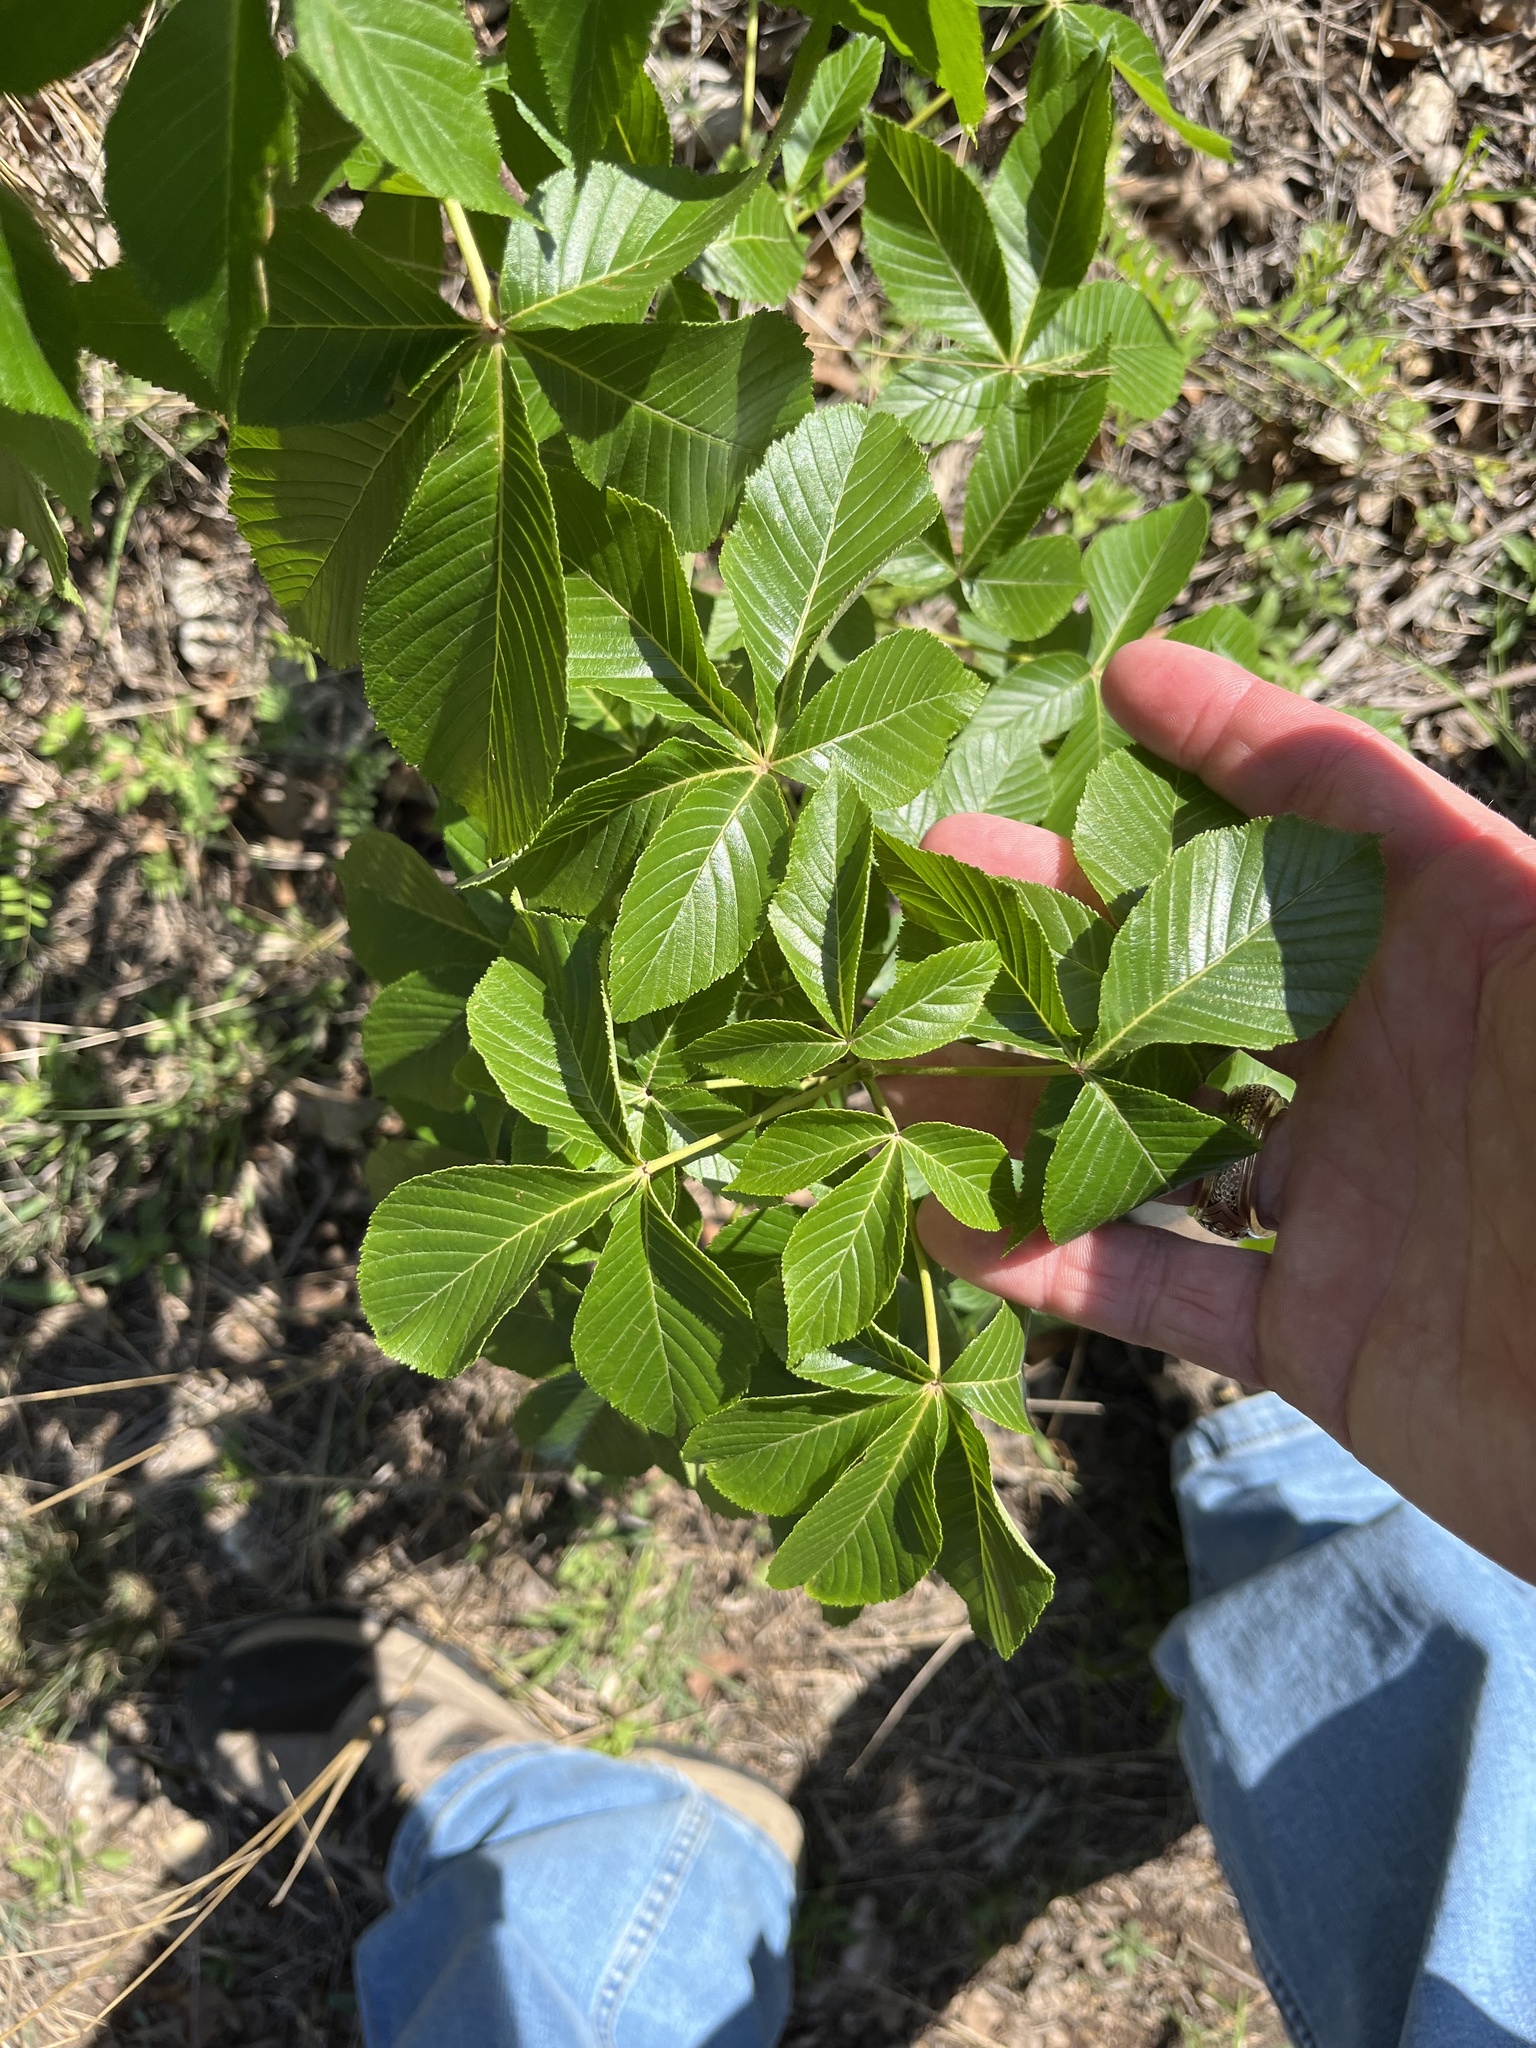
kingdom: Plantae
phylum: Tracheophyta
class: Magnoliopsida
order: Sapindales
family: Sapindaceae
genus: Aesculus
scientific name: Aesculus pavia
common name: Red buckeye
